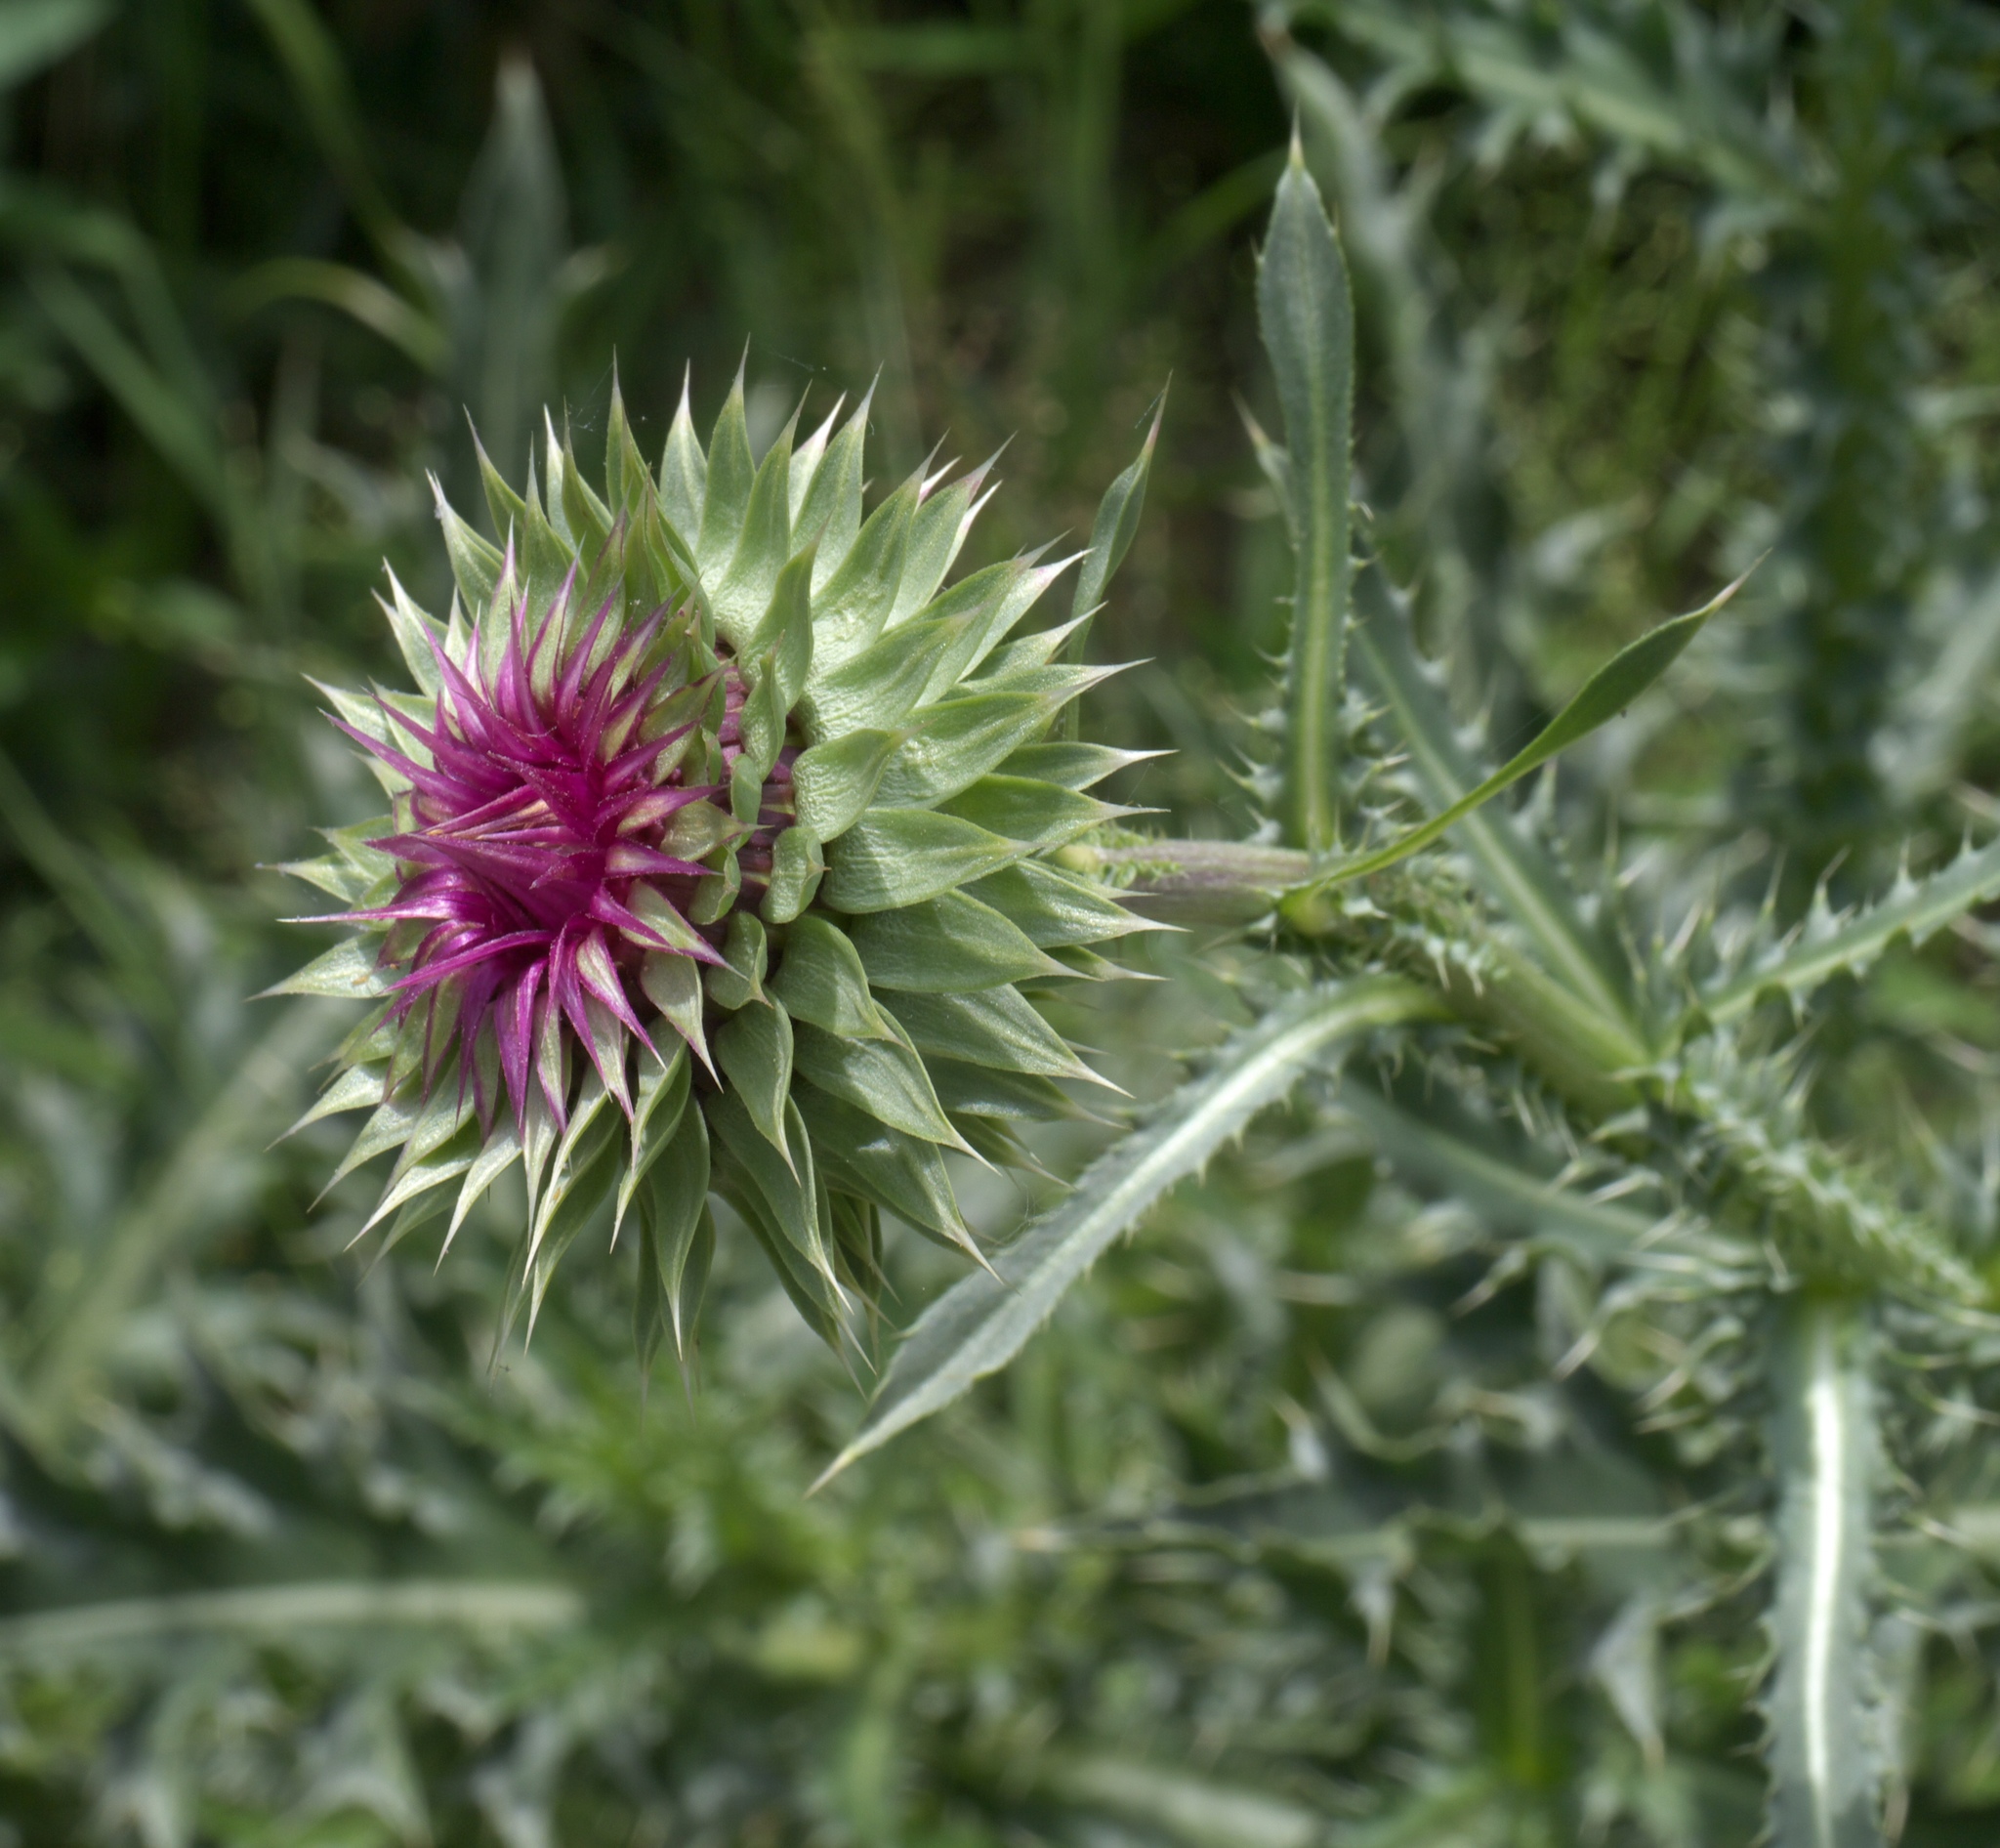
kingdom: Plantae
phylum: Tracheophyta
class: Magnoliopsida
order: Asterales
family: Asteraceae
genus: Carduus
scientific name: Carduus nutans
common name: Musk thistle
